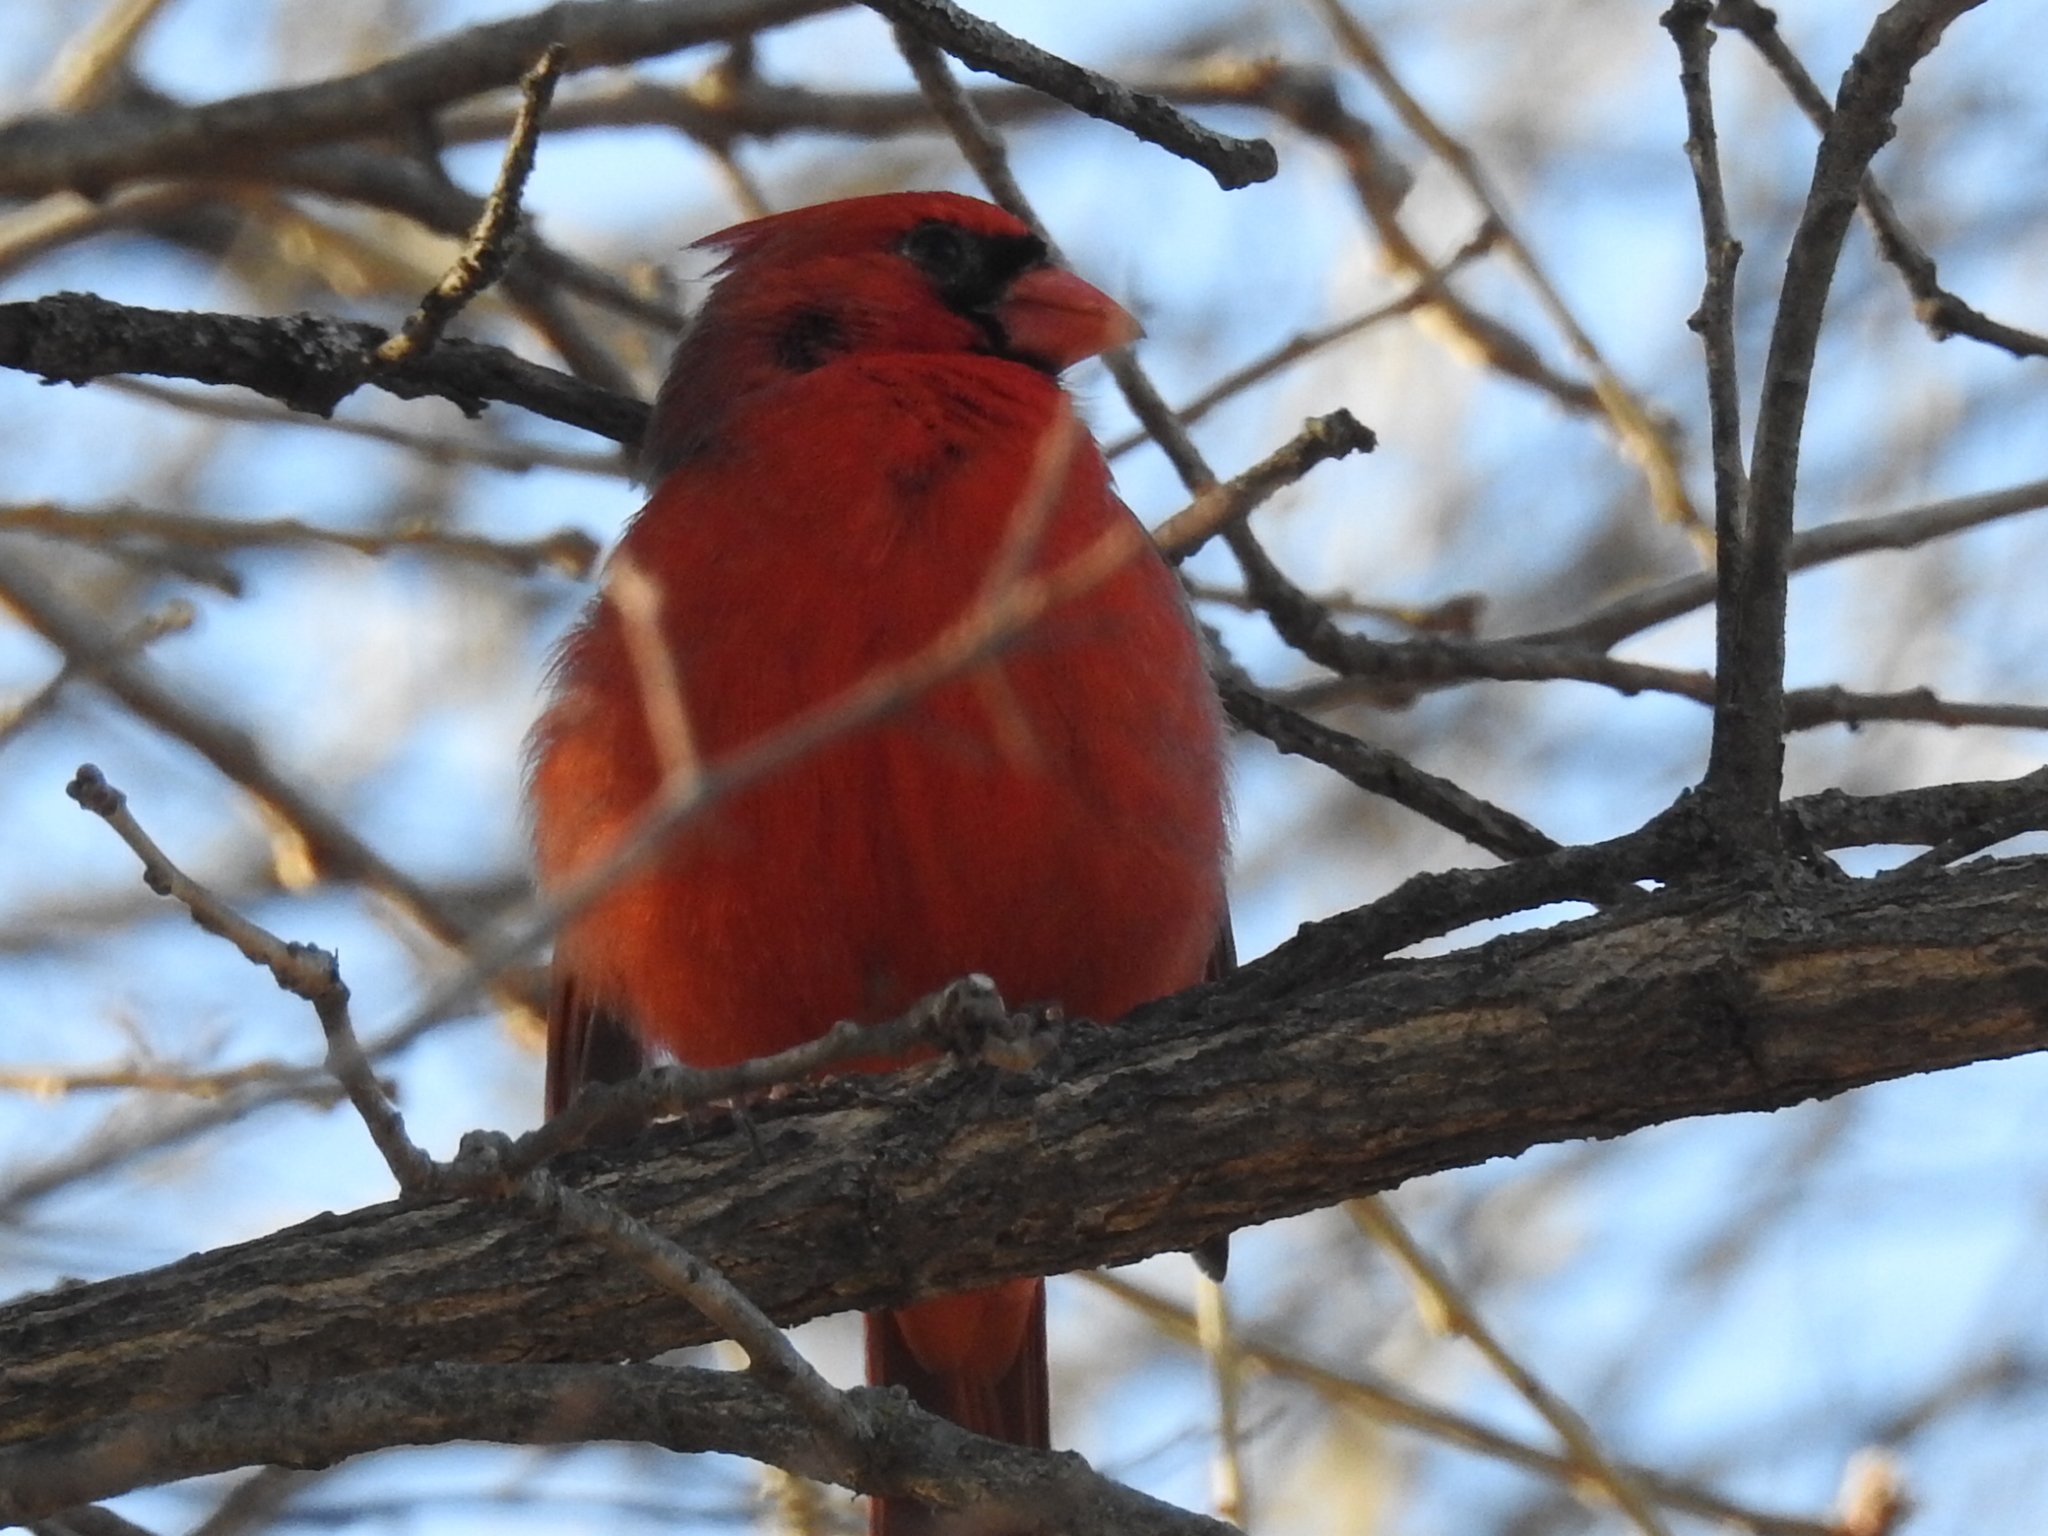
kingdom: Animalia
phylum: Chordata
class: Aves
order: Passeriformes
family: Cardinalidae
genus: Cardinalis
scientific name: Cardinalis cardinalis
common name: Northern cardinal
